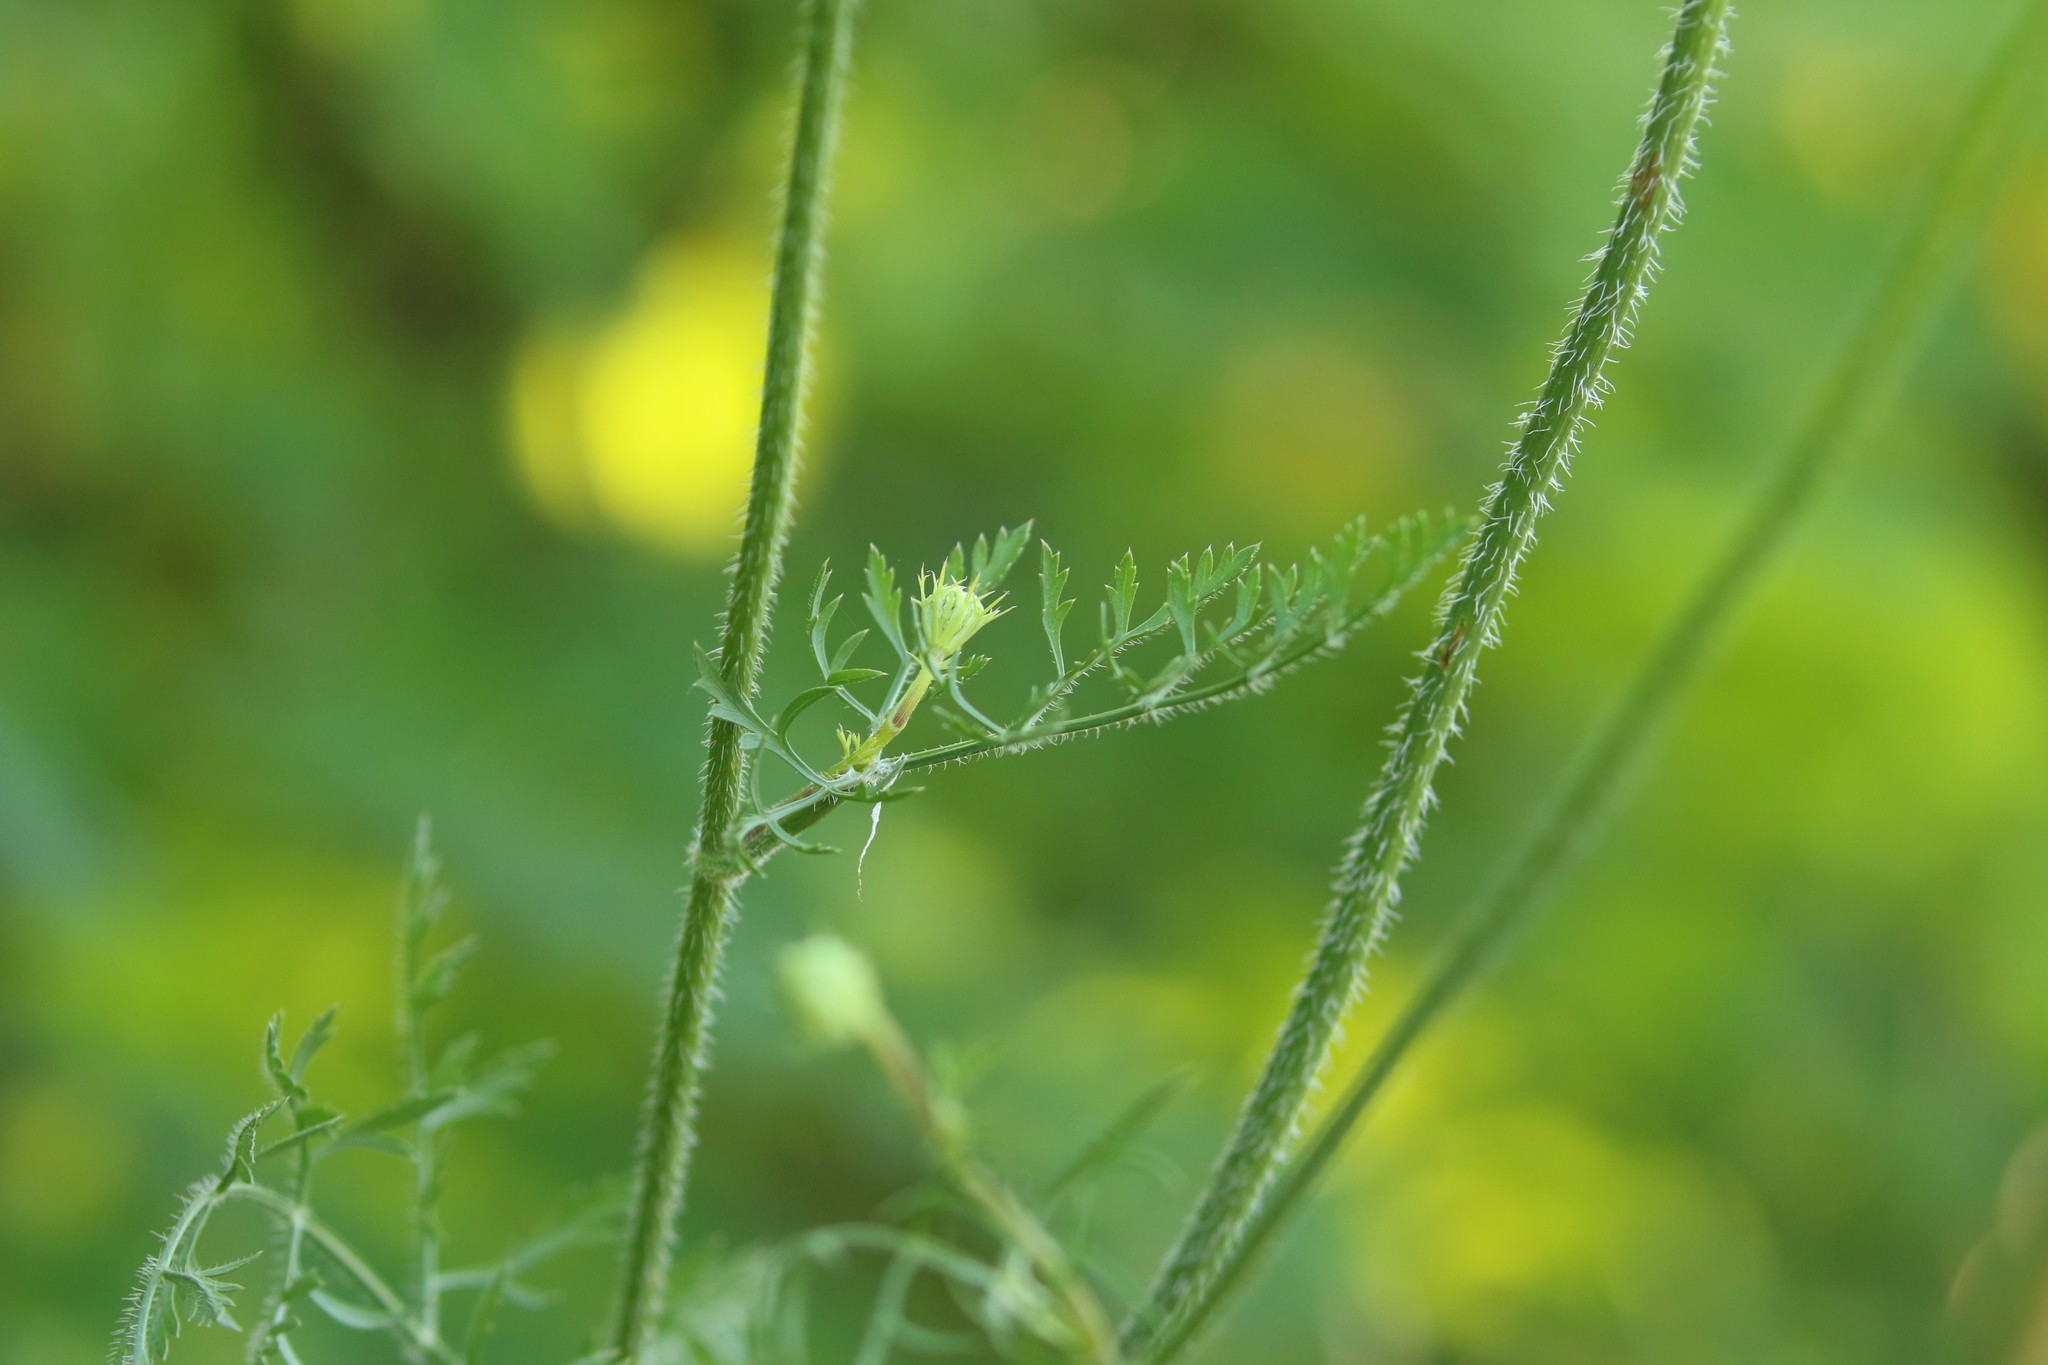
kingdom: Plantae
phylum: Tracheophyta
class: Magnoliopsida
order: Apiales
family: Apiaceae
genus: Daucus
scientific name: Daucus carota
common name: Wild carrot
